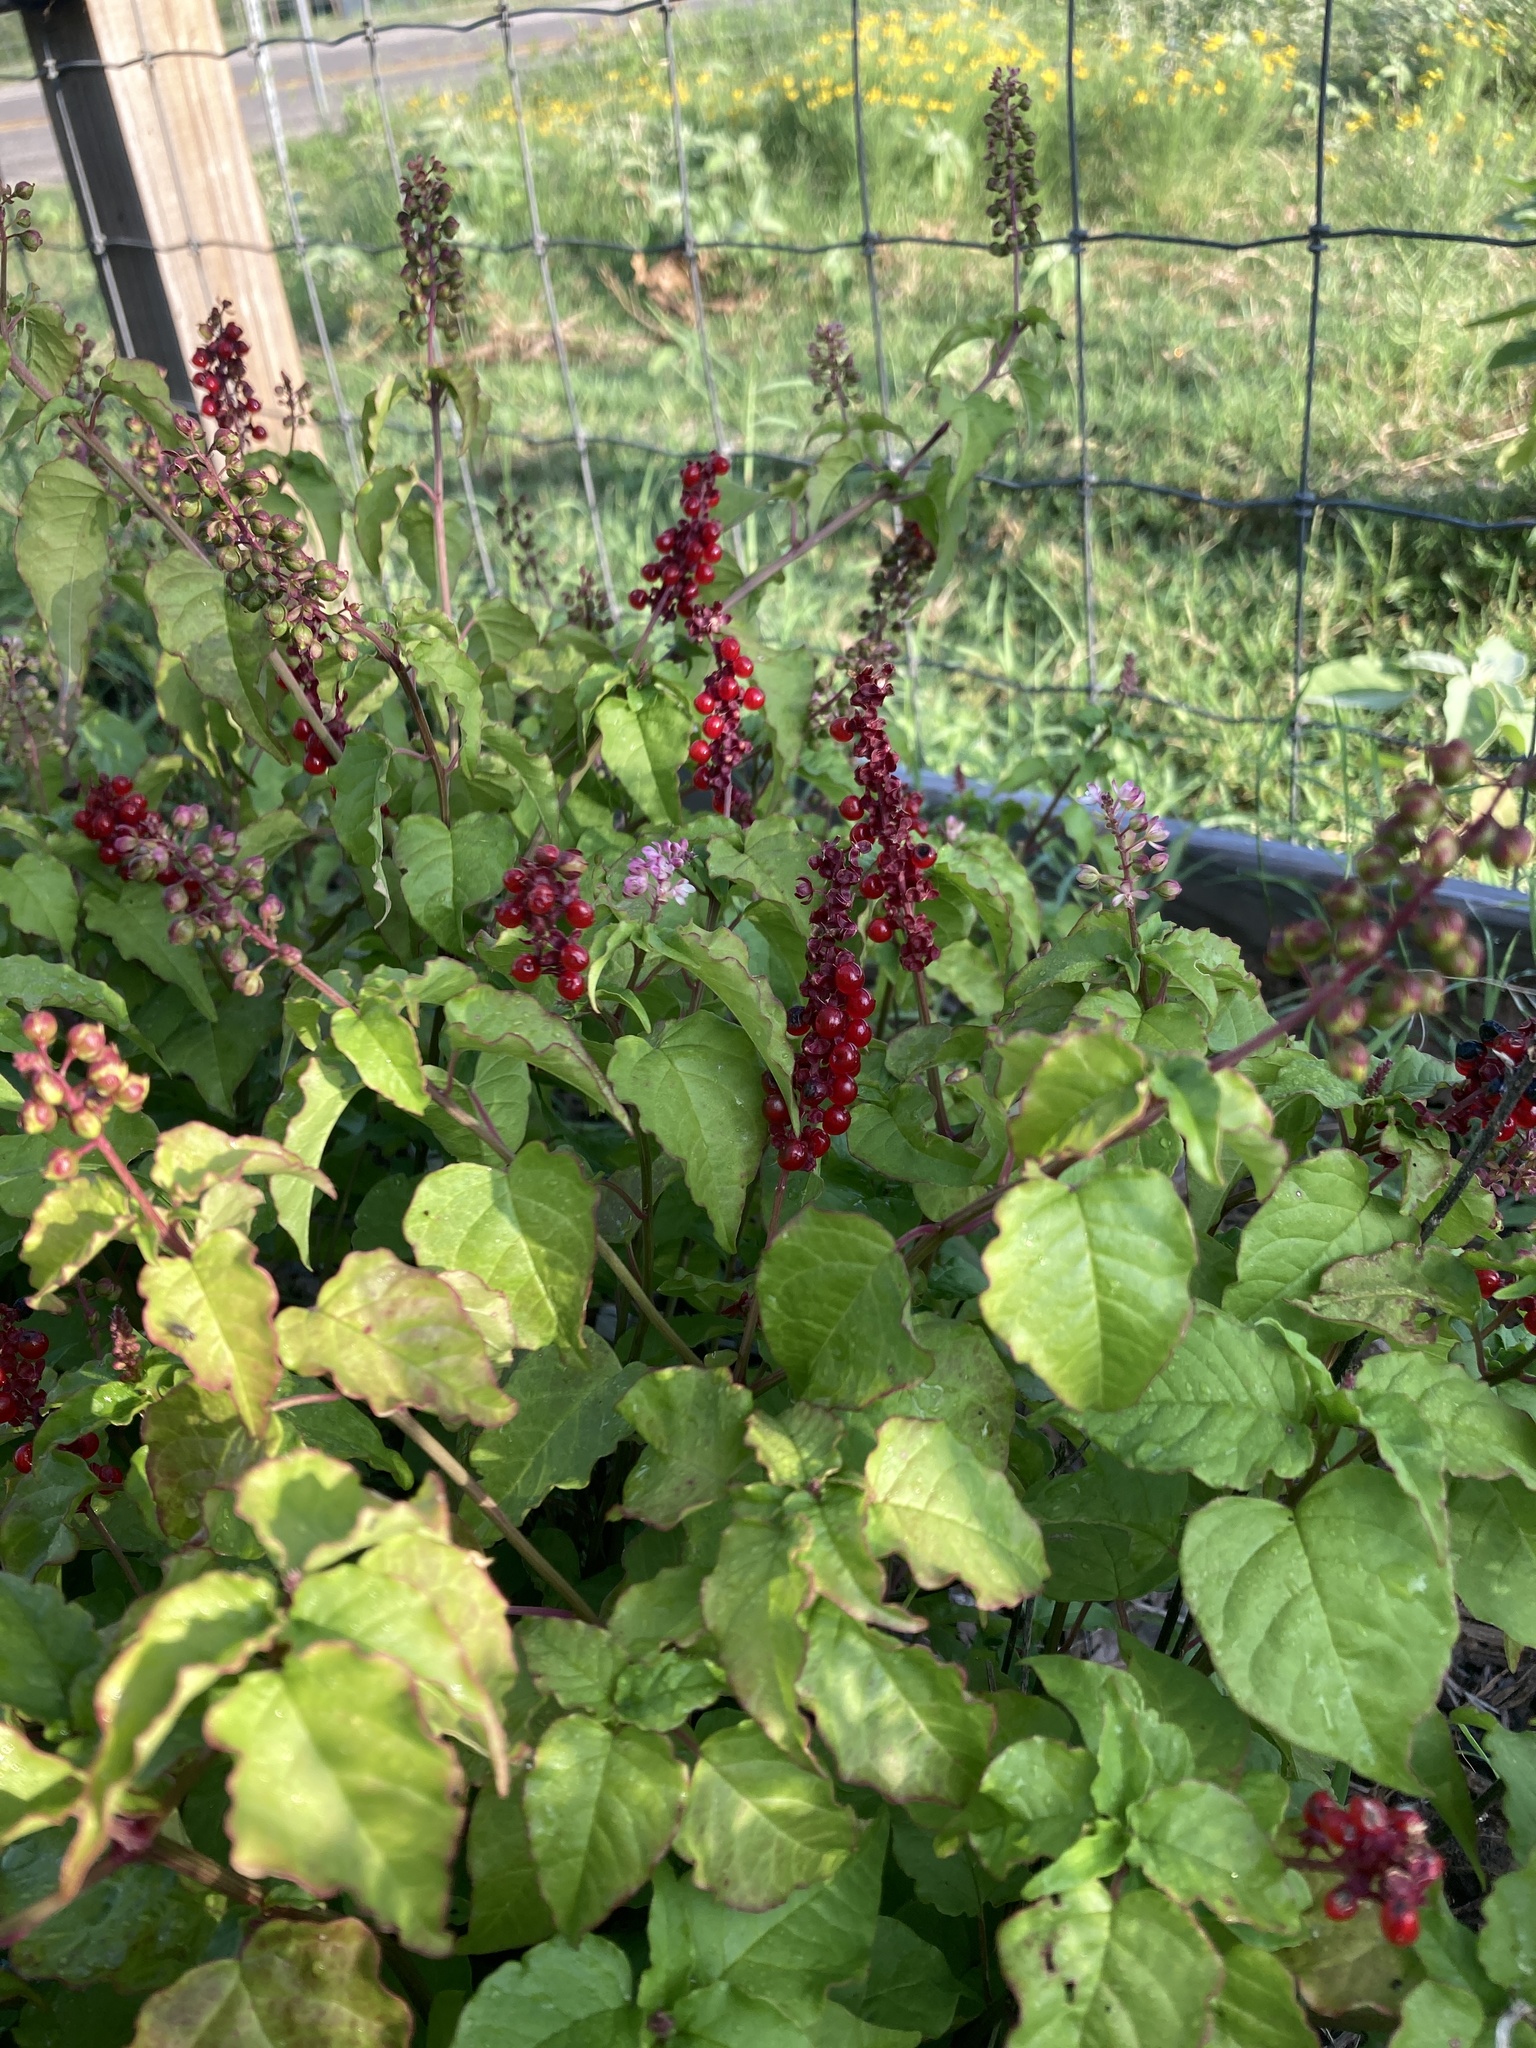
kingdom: Plantae
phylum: Tracheophyta
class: Magnoliopsida
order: Caryophyllales
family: Phytolaccaceae
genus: Rivina
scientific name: Rivina humilis
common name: Rougeplant
